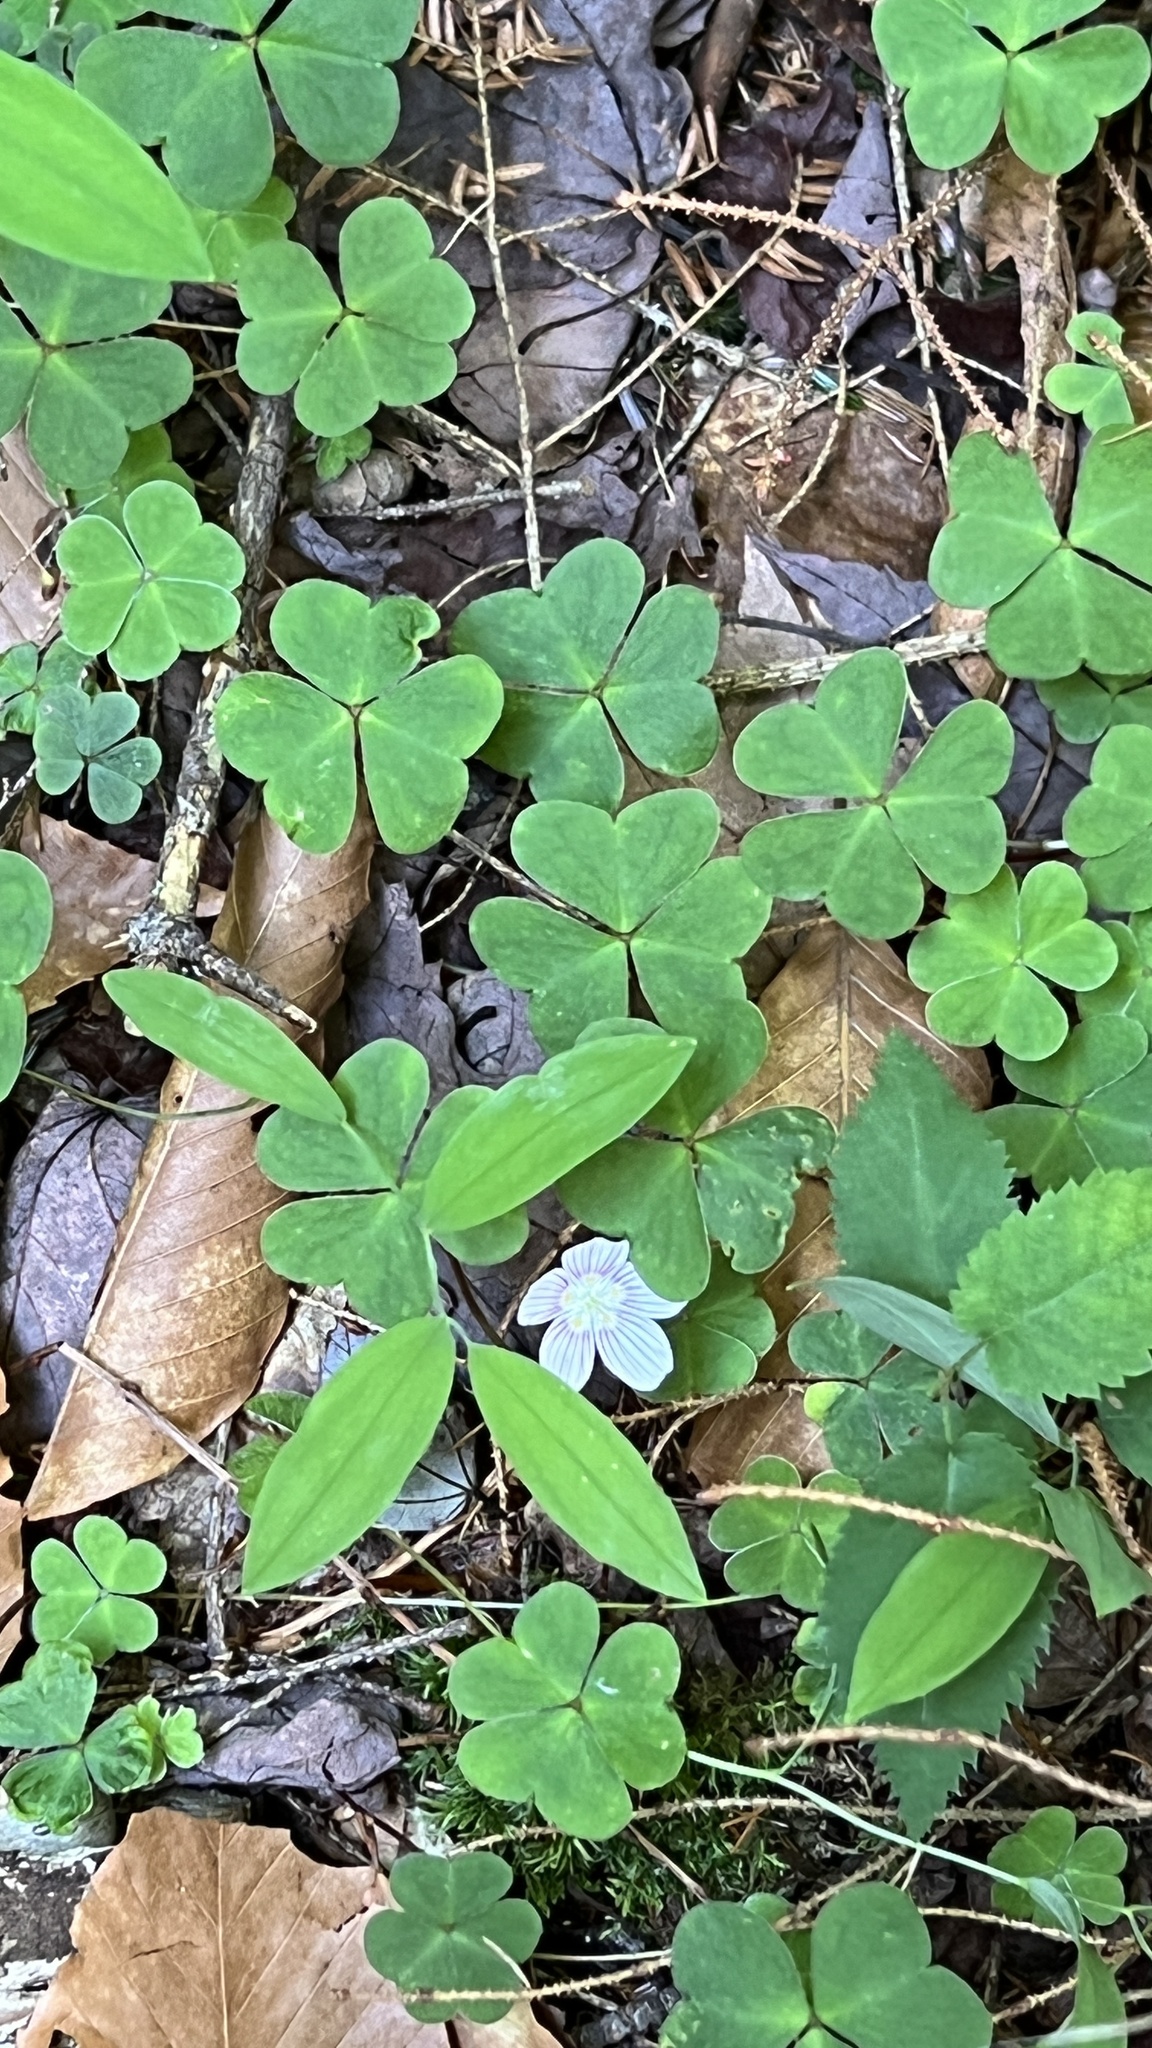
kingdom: Plantae
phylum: Tracheophyta
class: Magnoliopsida
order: Oxalidales
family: Oxalidaceae
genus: Oxalis
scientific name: Oxalis montana
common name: American wood-sorrel
